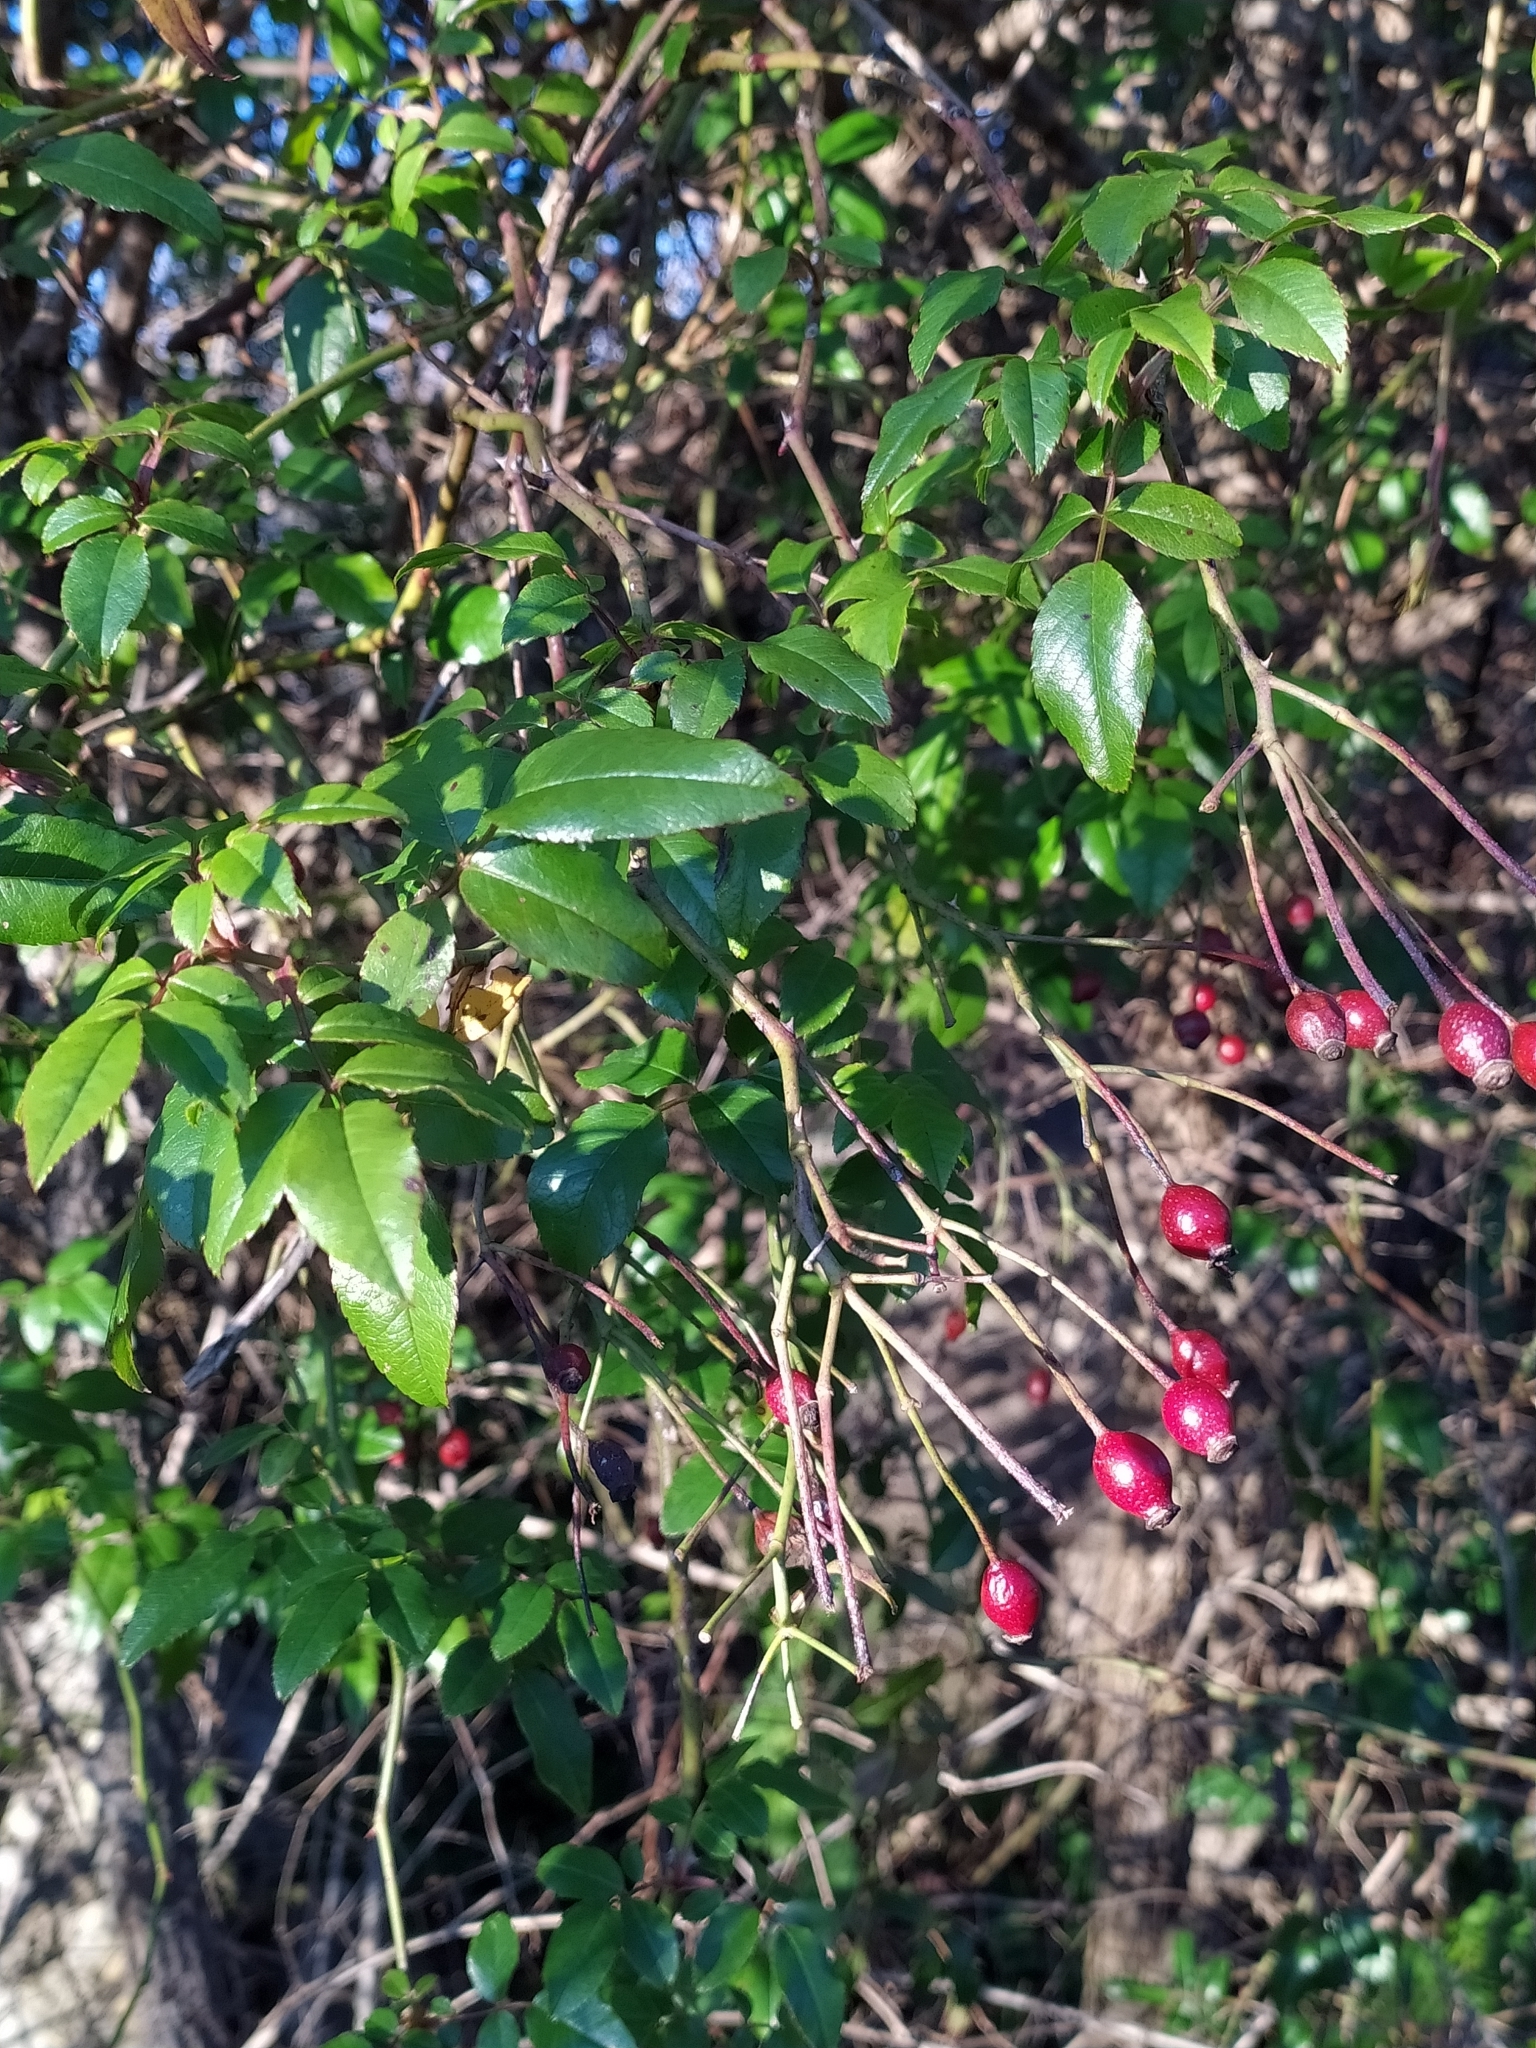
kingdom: Plantae
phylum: Tracheophyta
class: Magnoliopsida
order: Rosales
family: Rosaceae
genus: Rosa
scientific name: Rosa sempervirens
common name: Evergreen rose
